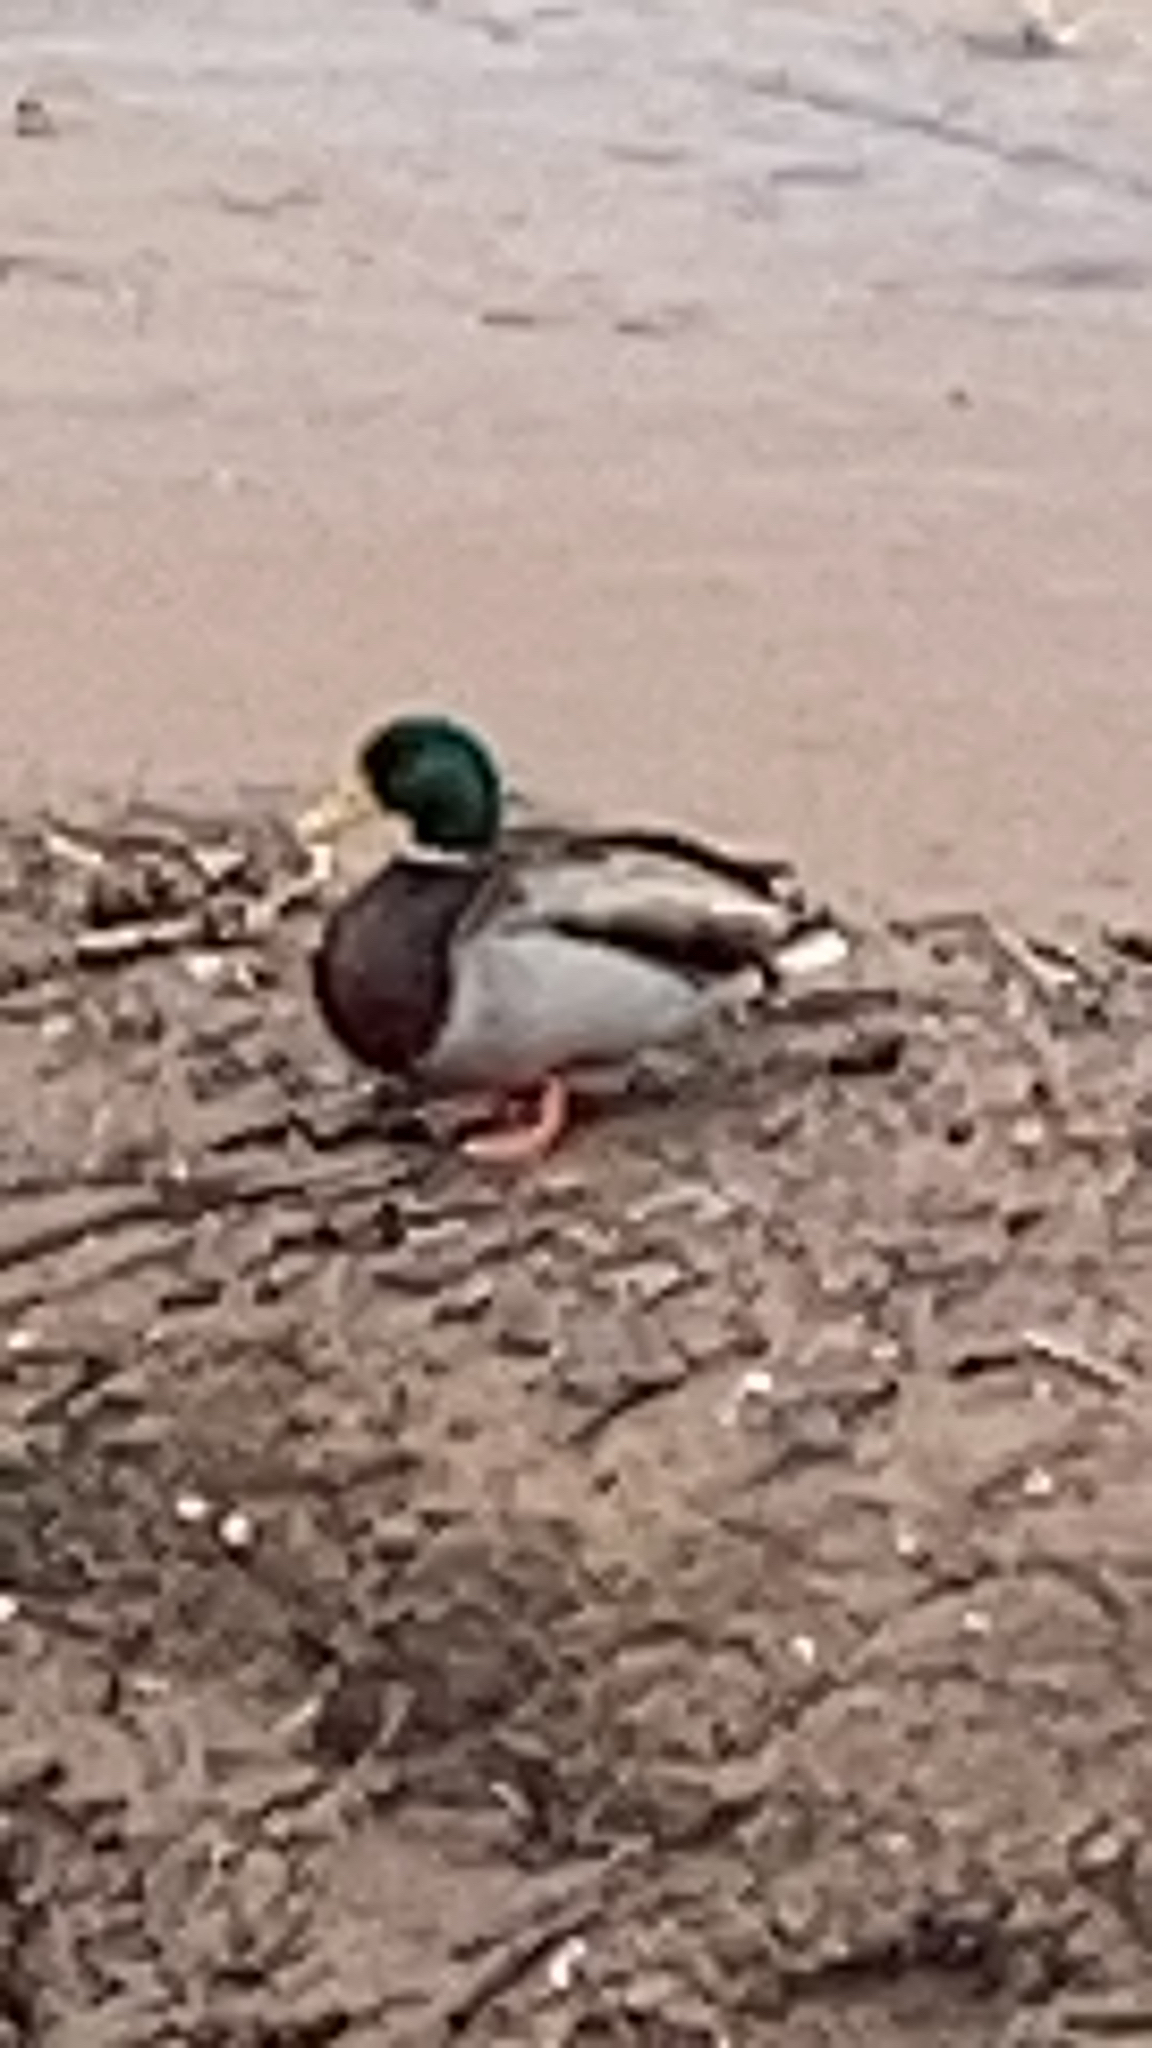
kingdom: Animalia
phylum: Chordata
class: Aves
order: Anseriformes
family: Anatidae
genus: Anas
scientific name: Anas platyrhynchos
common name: Mallard
